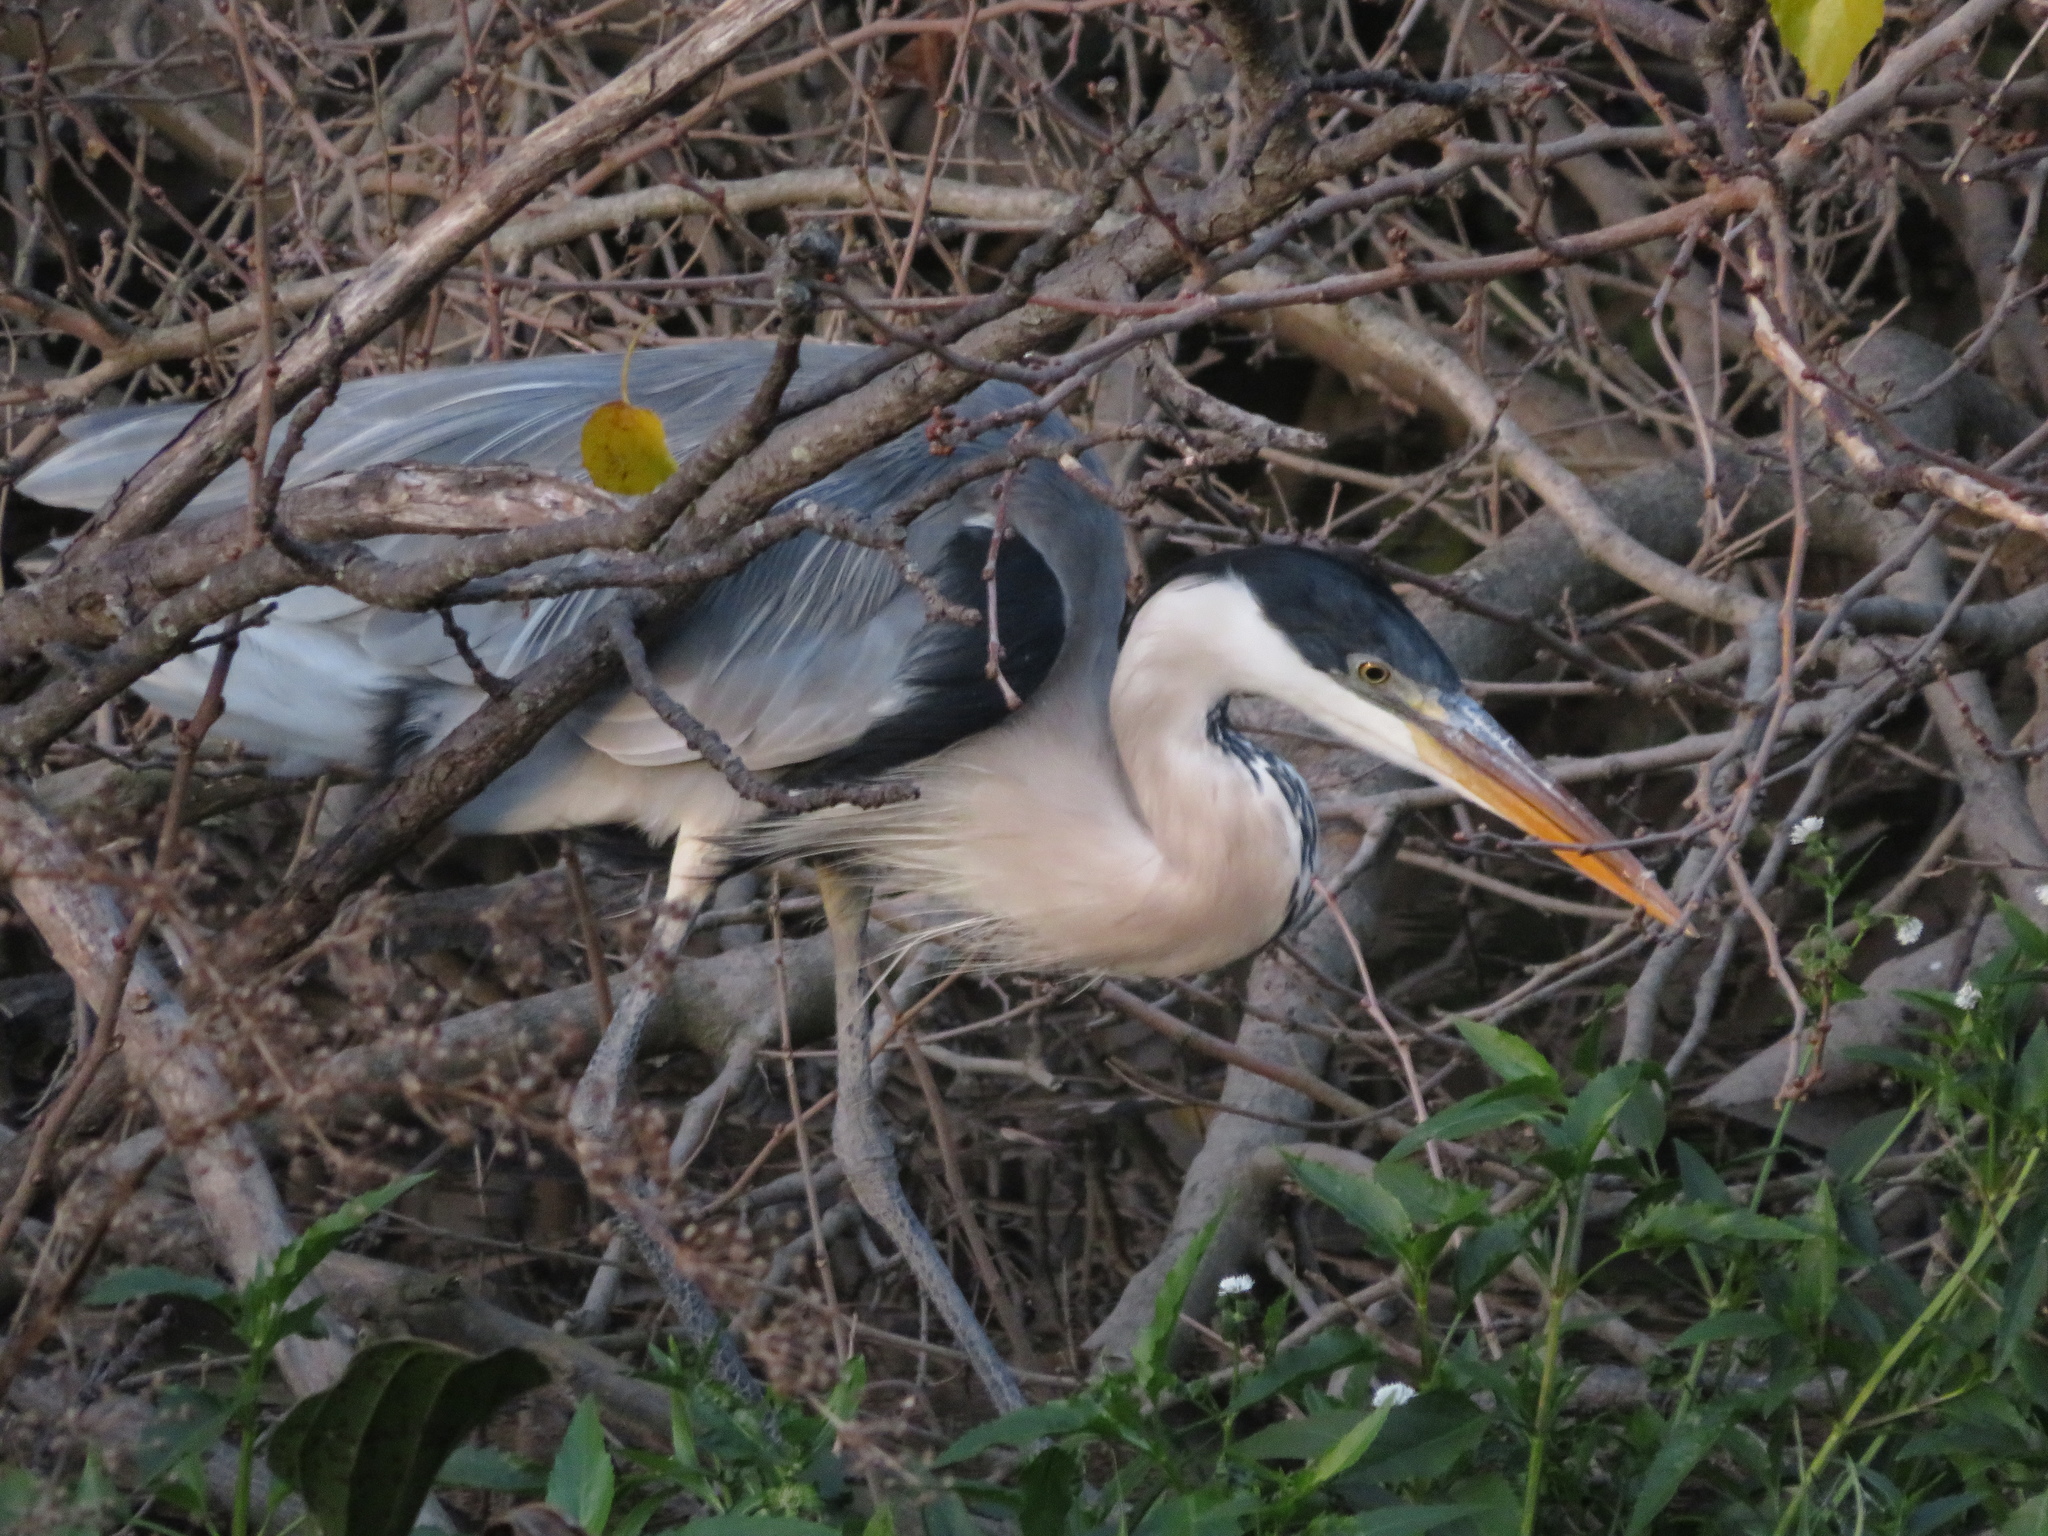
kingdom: Animalia
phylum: Chordata
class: Aves
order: Pelecaniformes
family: Ardeidae
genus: Ardea
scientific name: Ardea cocoi
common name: Cocoi heron
